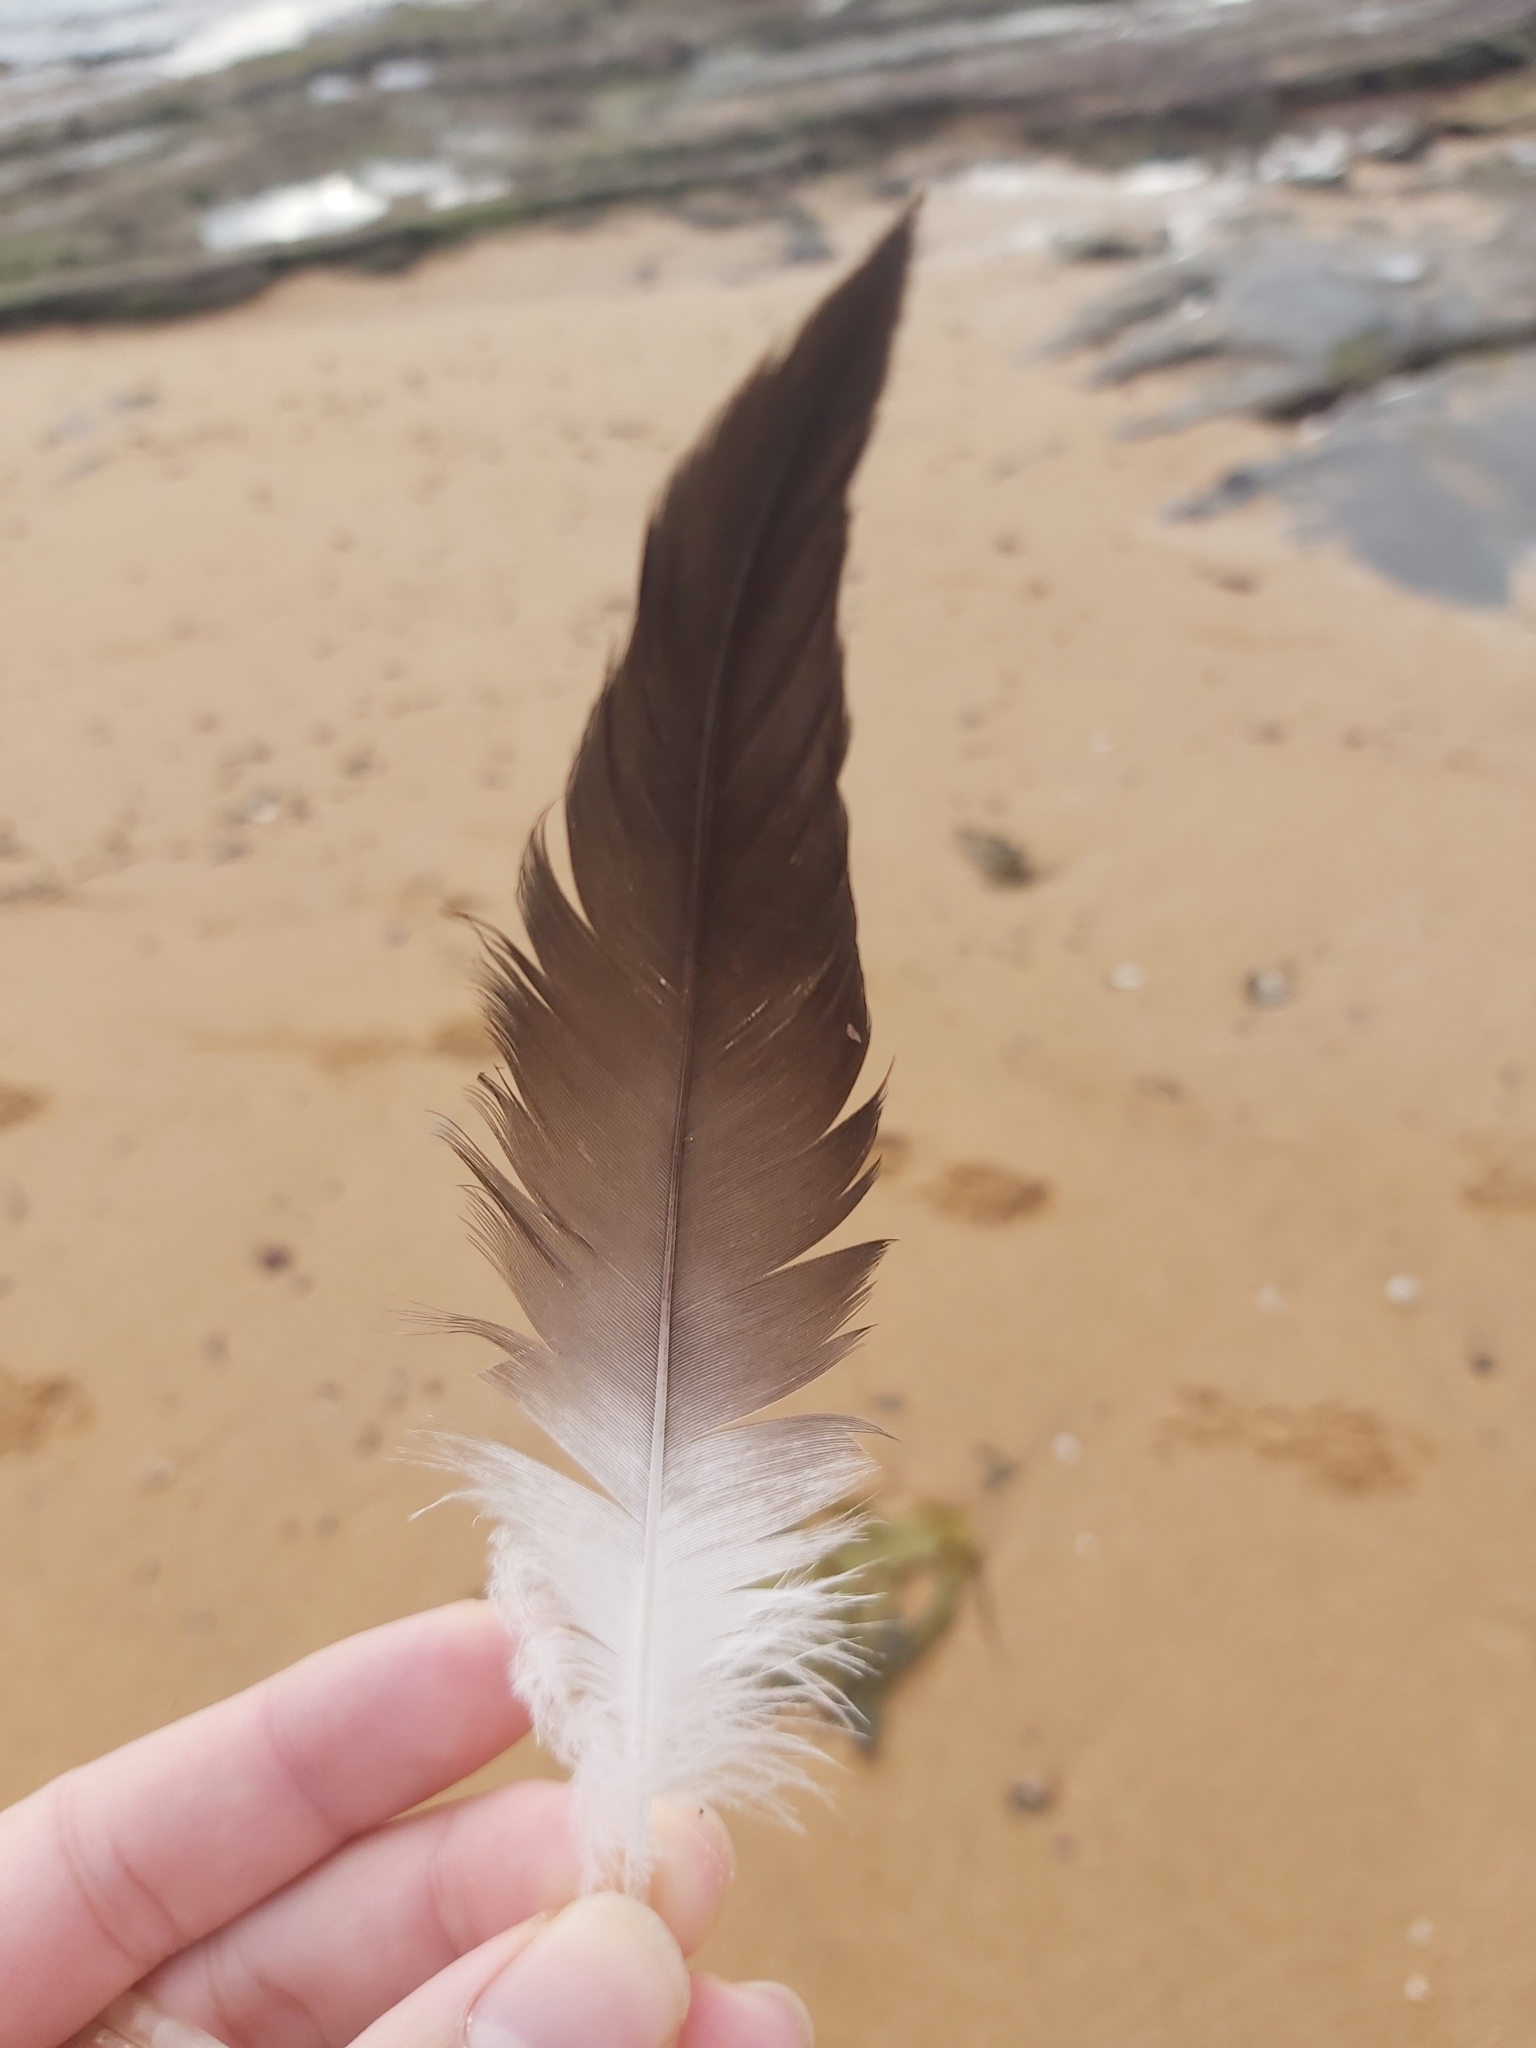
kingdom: Animalia
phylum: Chordata
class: Aves
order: Pelecaniformes
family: Pelecanidae
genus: Pelecanus
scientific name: Pelecanus conspicillatus
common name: Australian pelican
